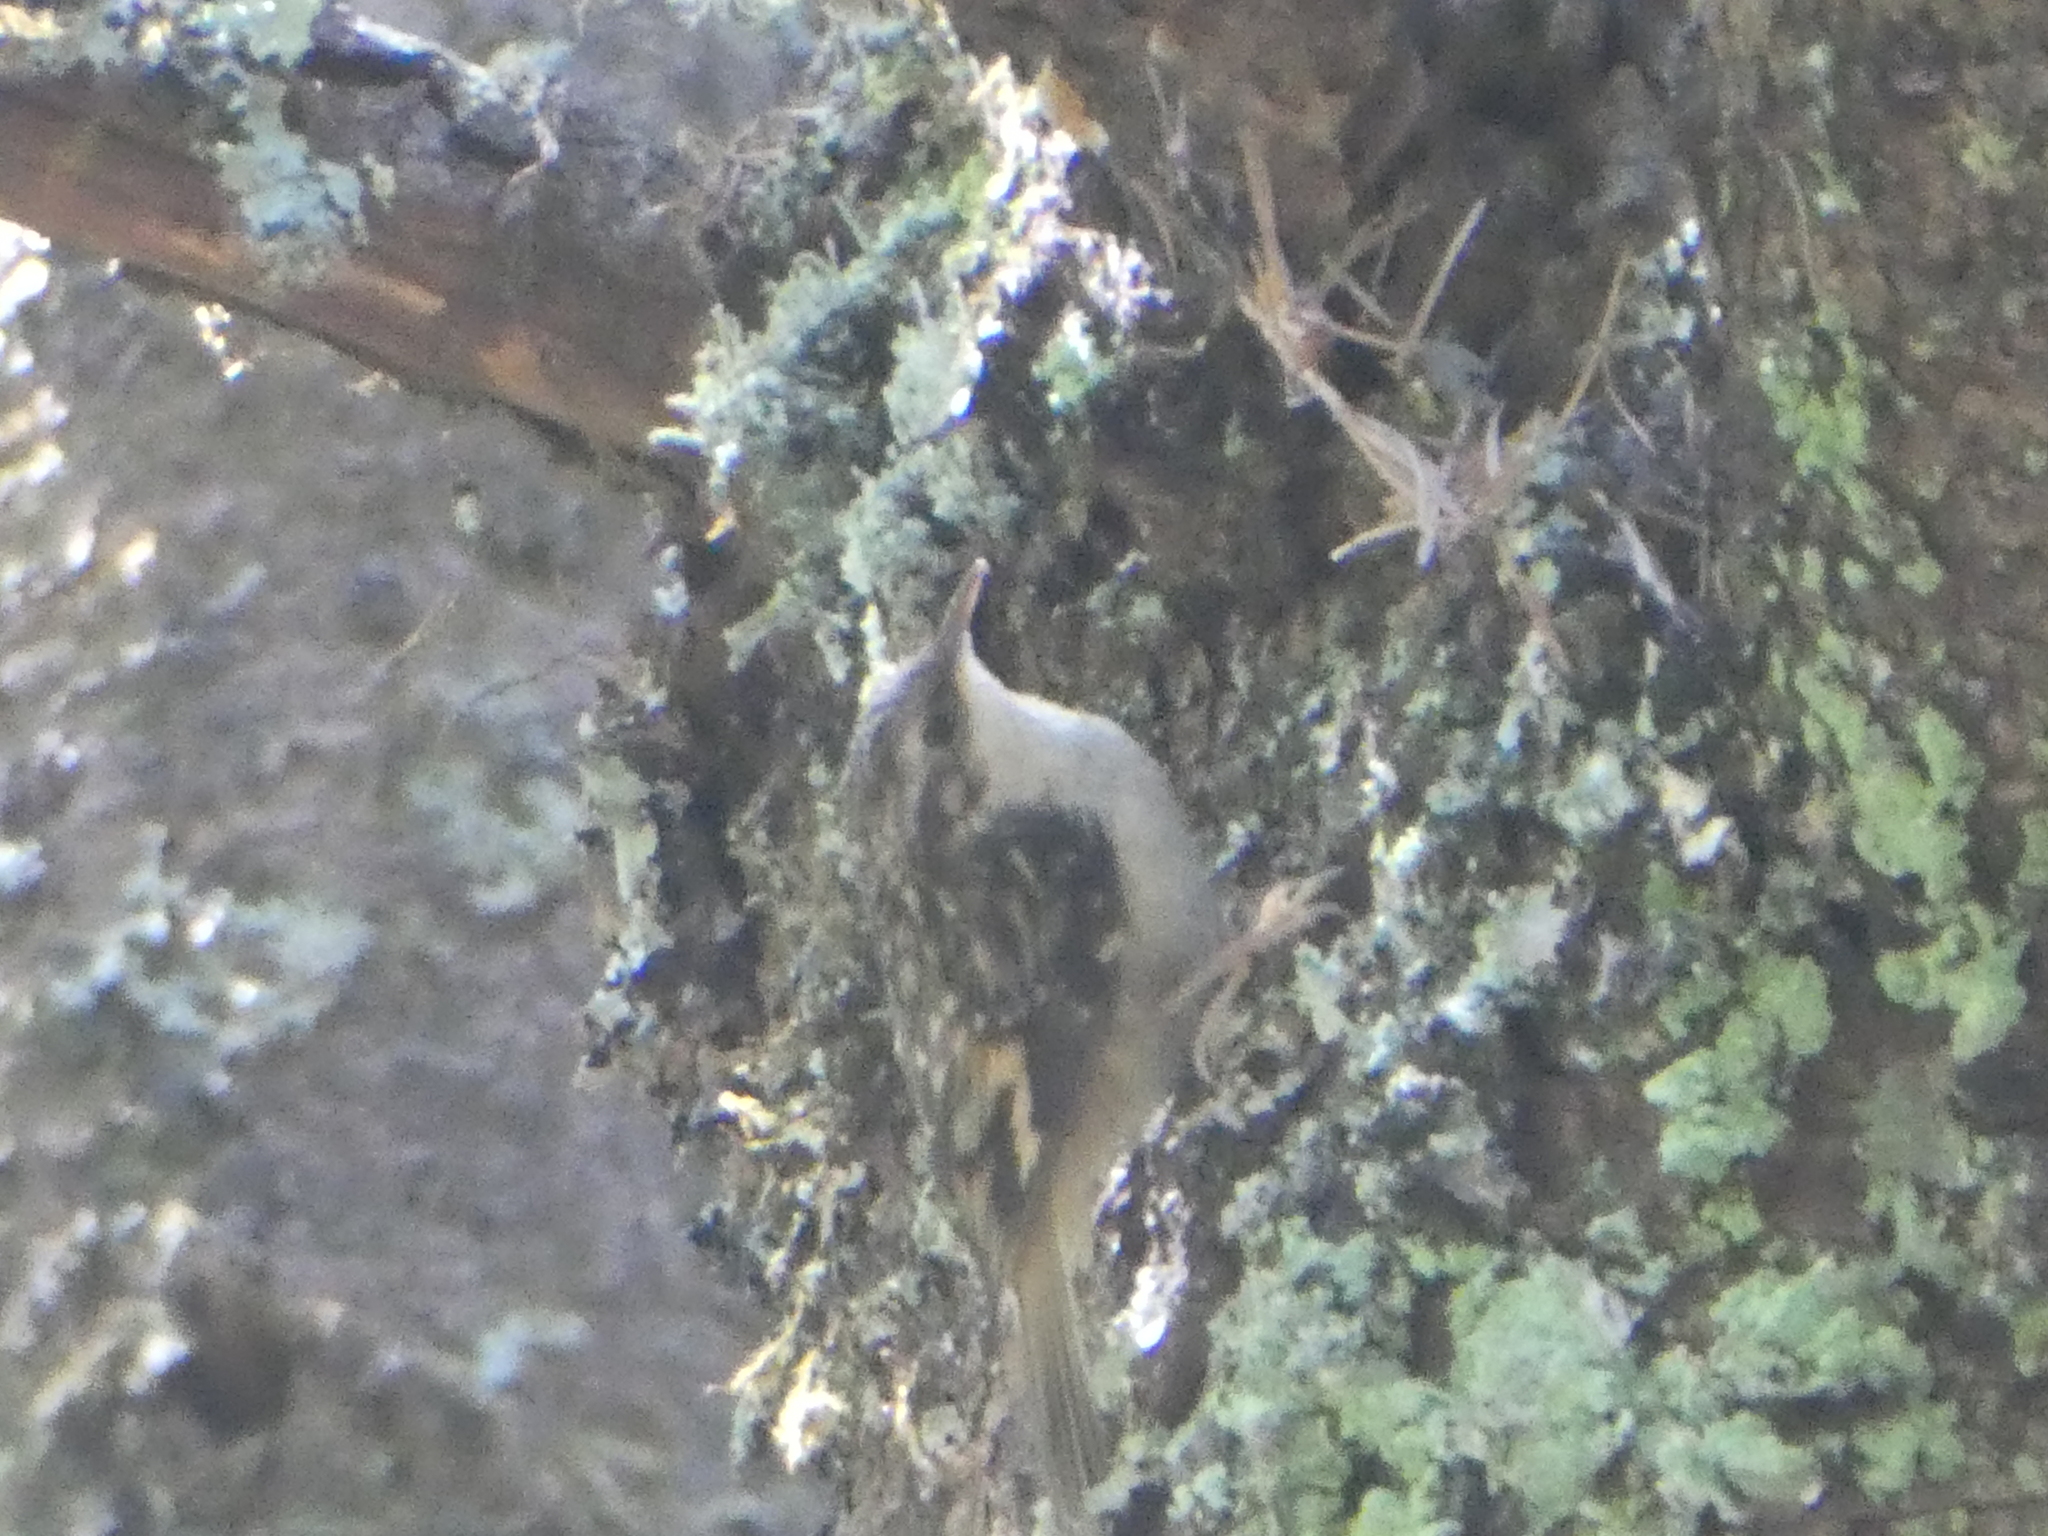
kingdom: Animalia
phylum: Chordata
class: Aves
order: Passeriformes
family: Certhiidae
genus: Certhia
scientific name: Certhia americana
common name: Brown creeper
